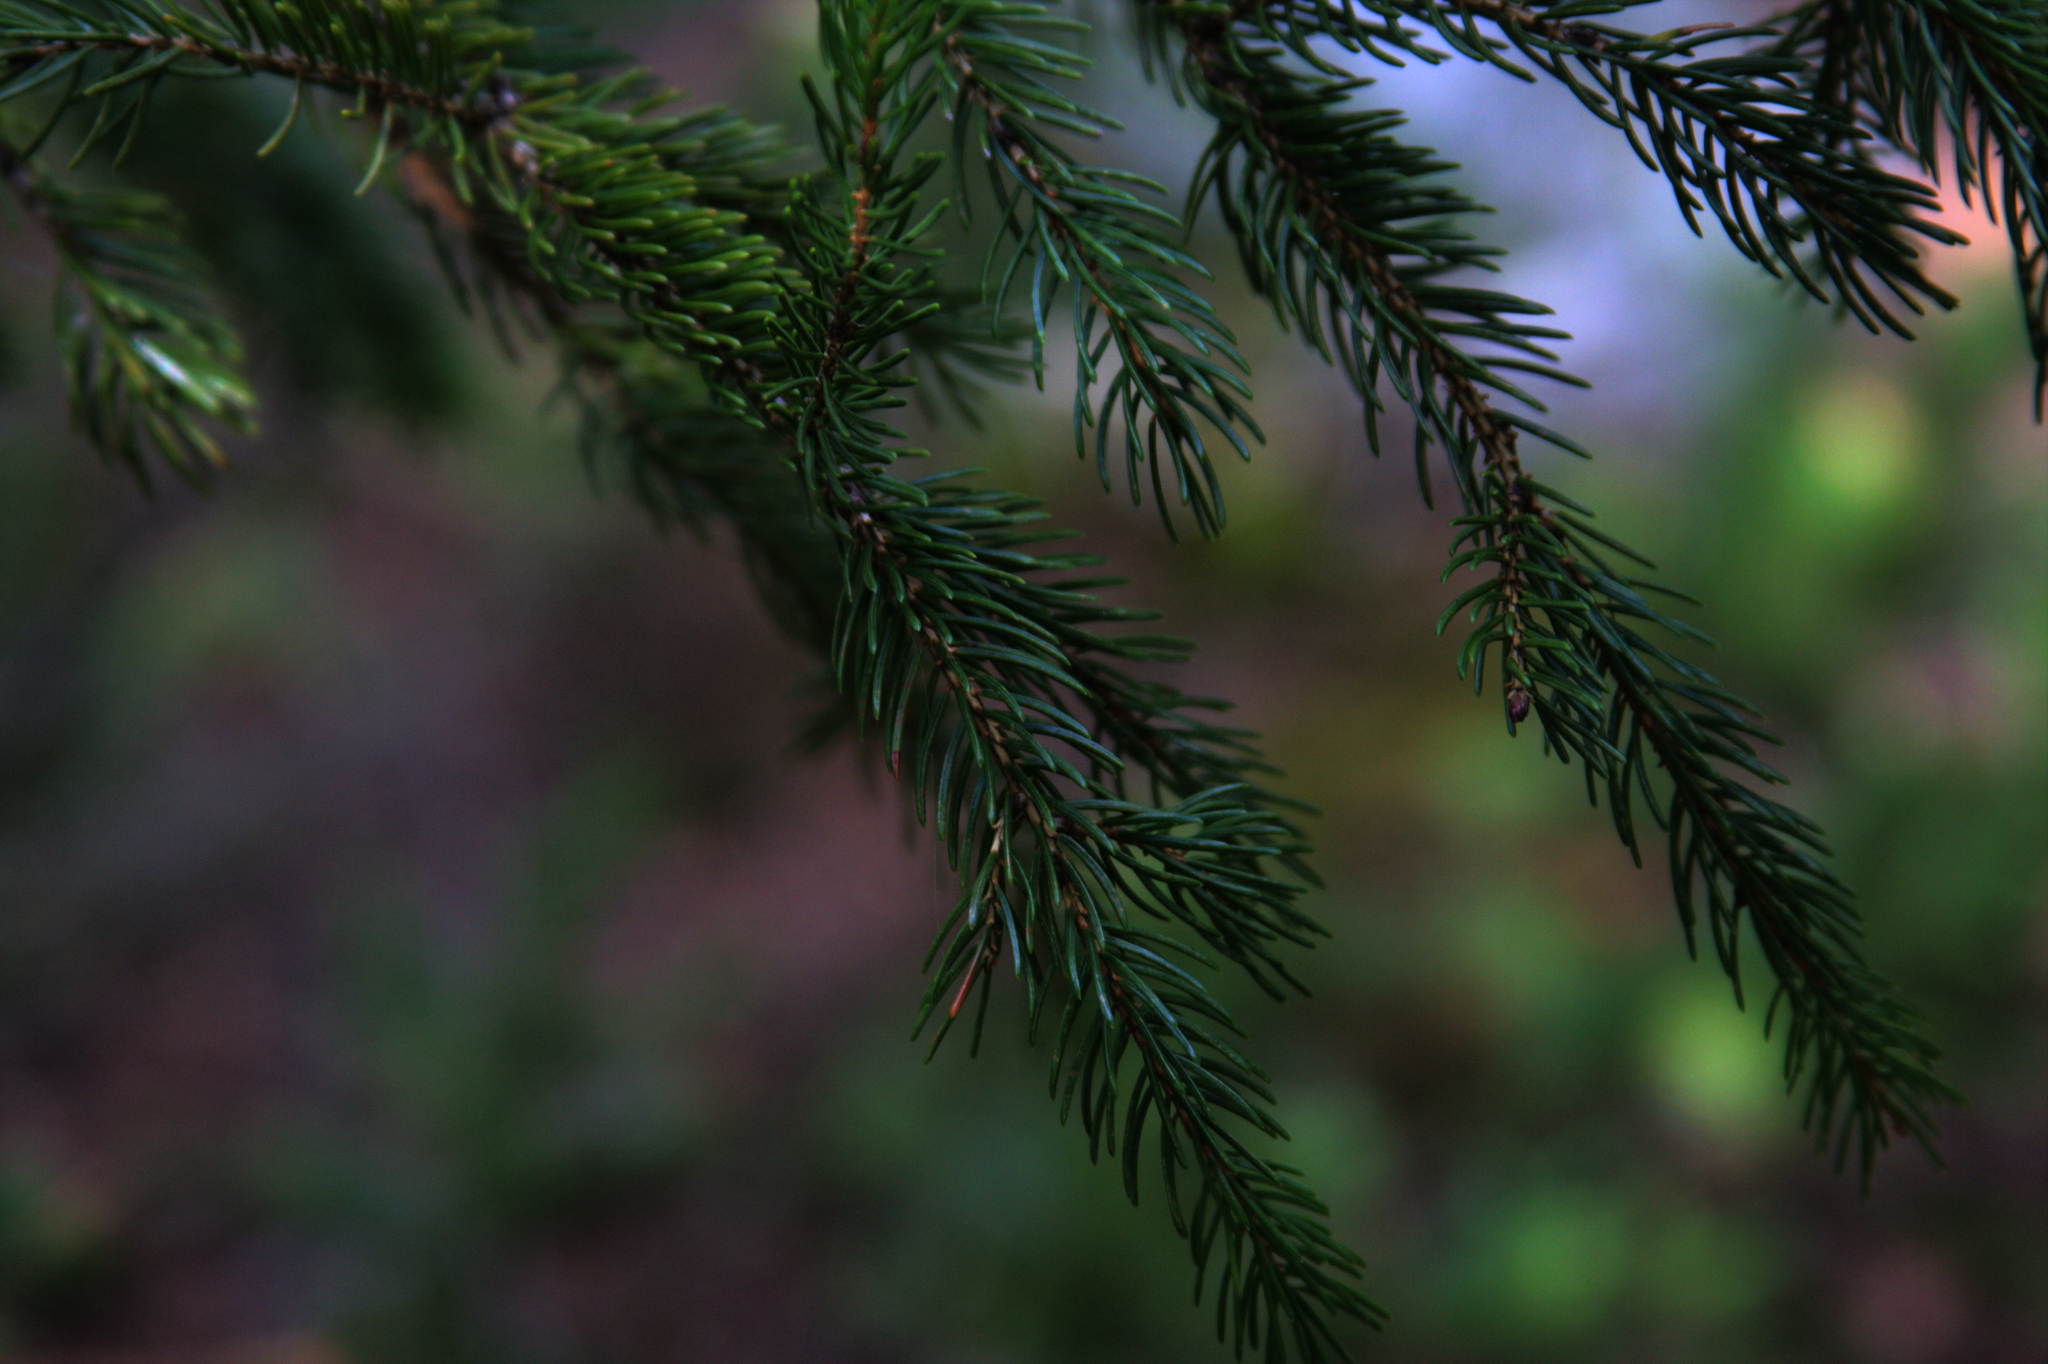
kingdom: Plantae
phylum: Tracheophyta
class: Pinopsida
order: Pinales
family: Pinaceae
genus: Picea
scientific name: Picea rubens
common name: Red spruce
